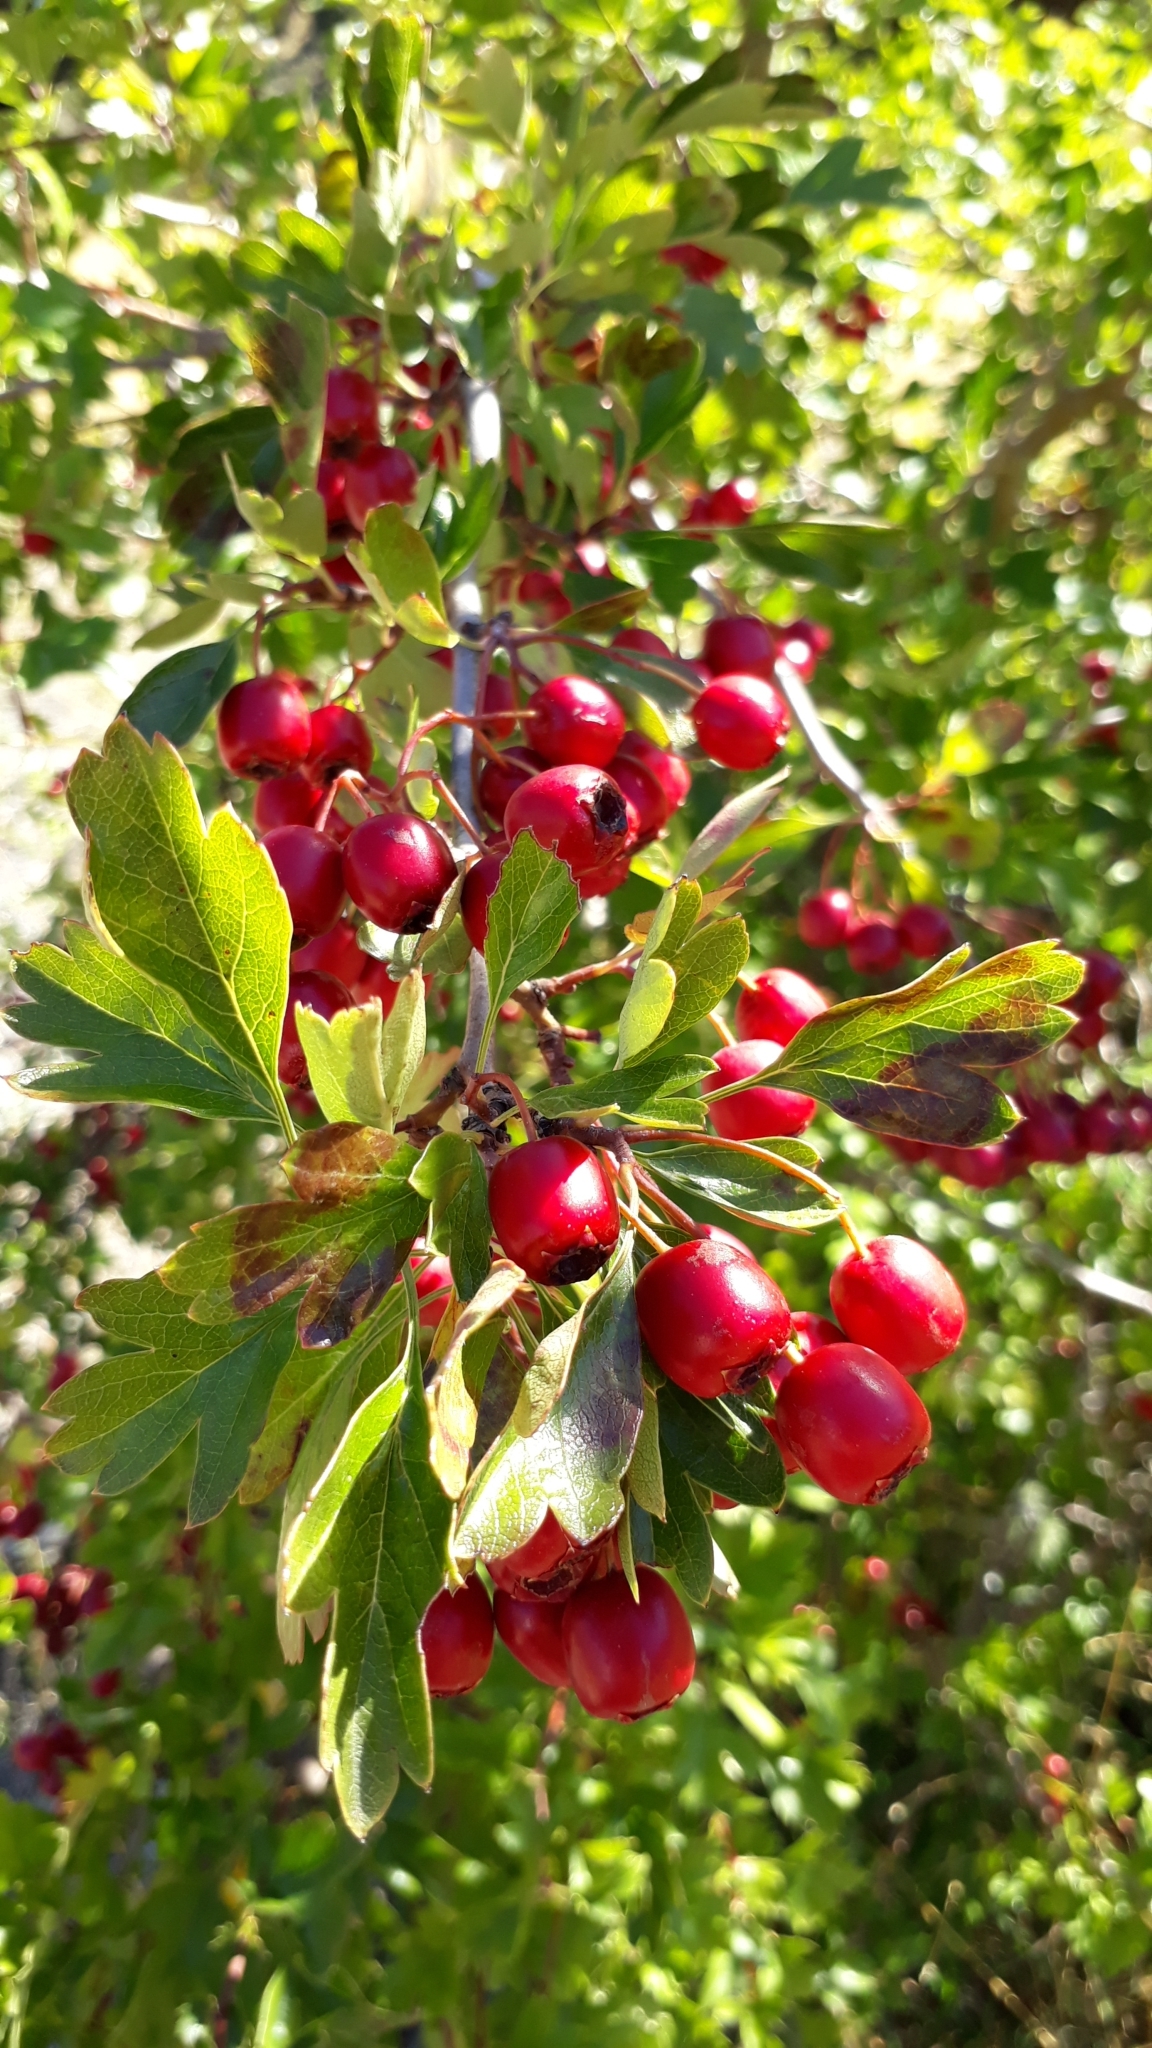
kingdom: Plantae
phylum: Tracheophyta
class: Magnoliopsida
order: Rosales
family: Rosaceae
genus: Crataegus
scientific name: Crataegus monogyna
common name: Hawthorn
